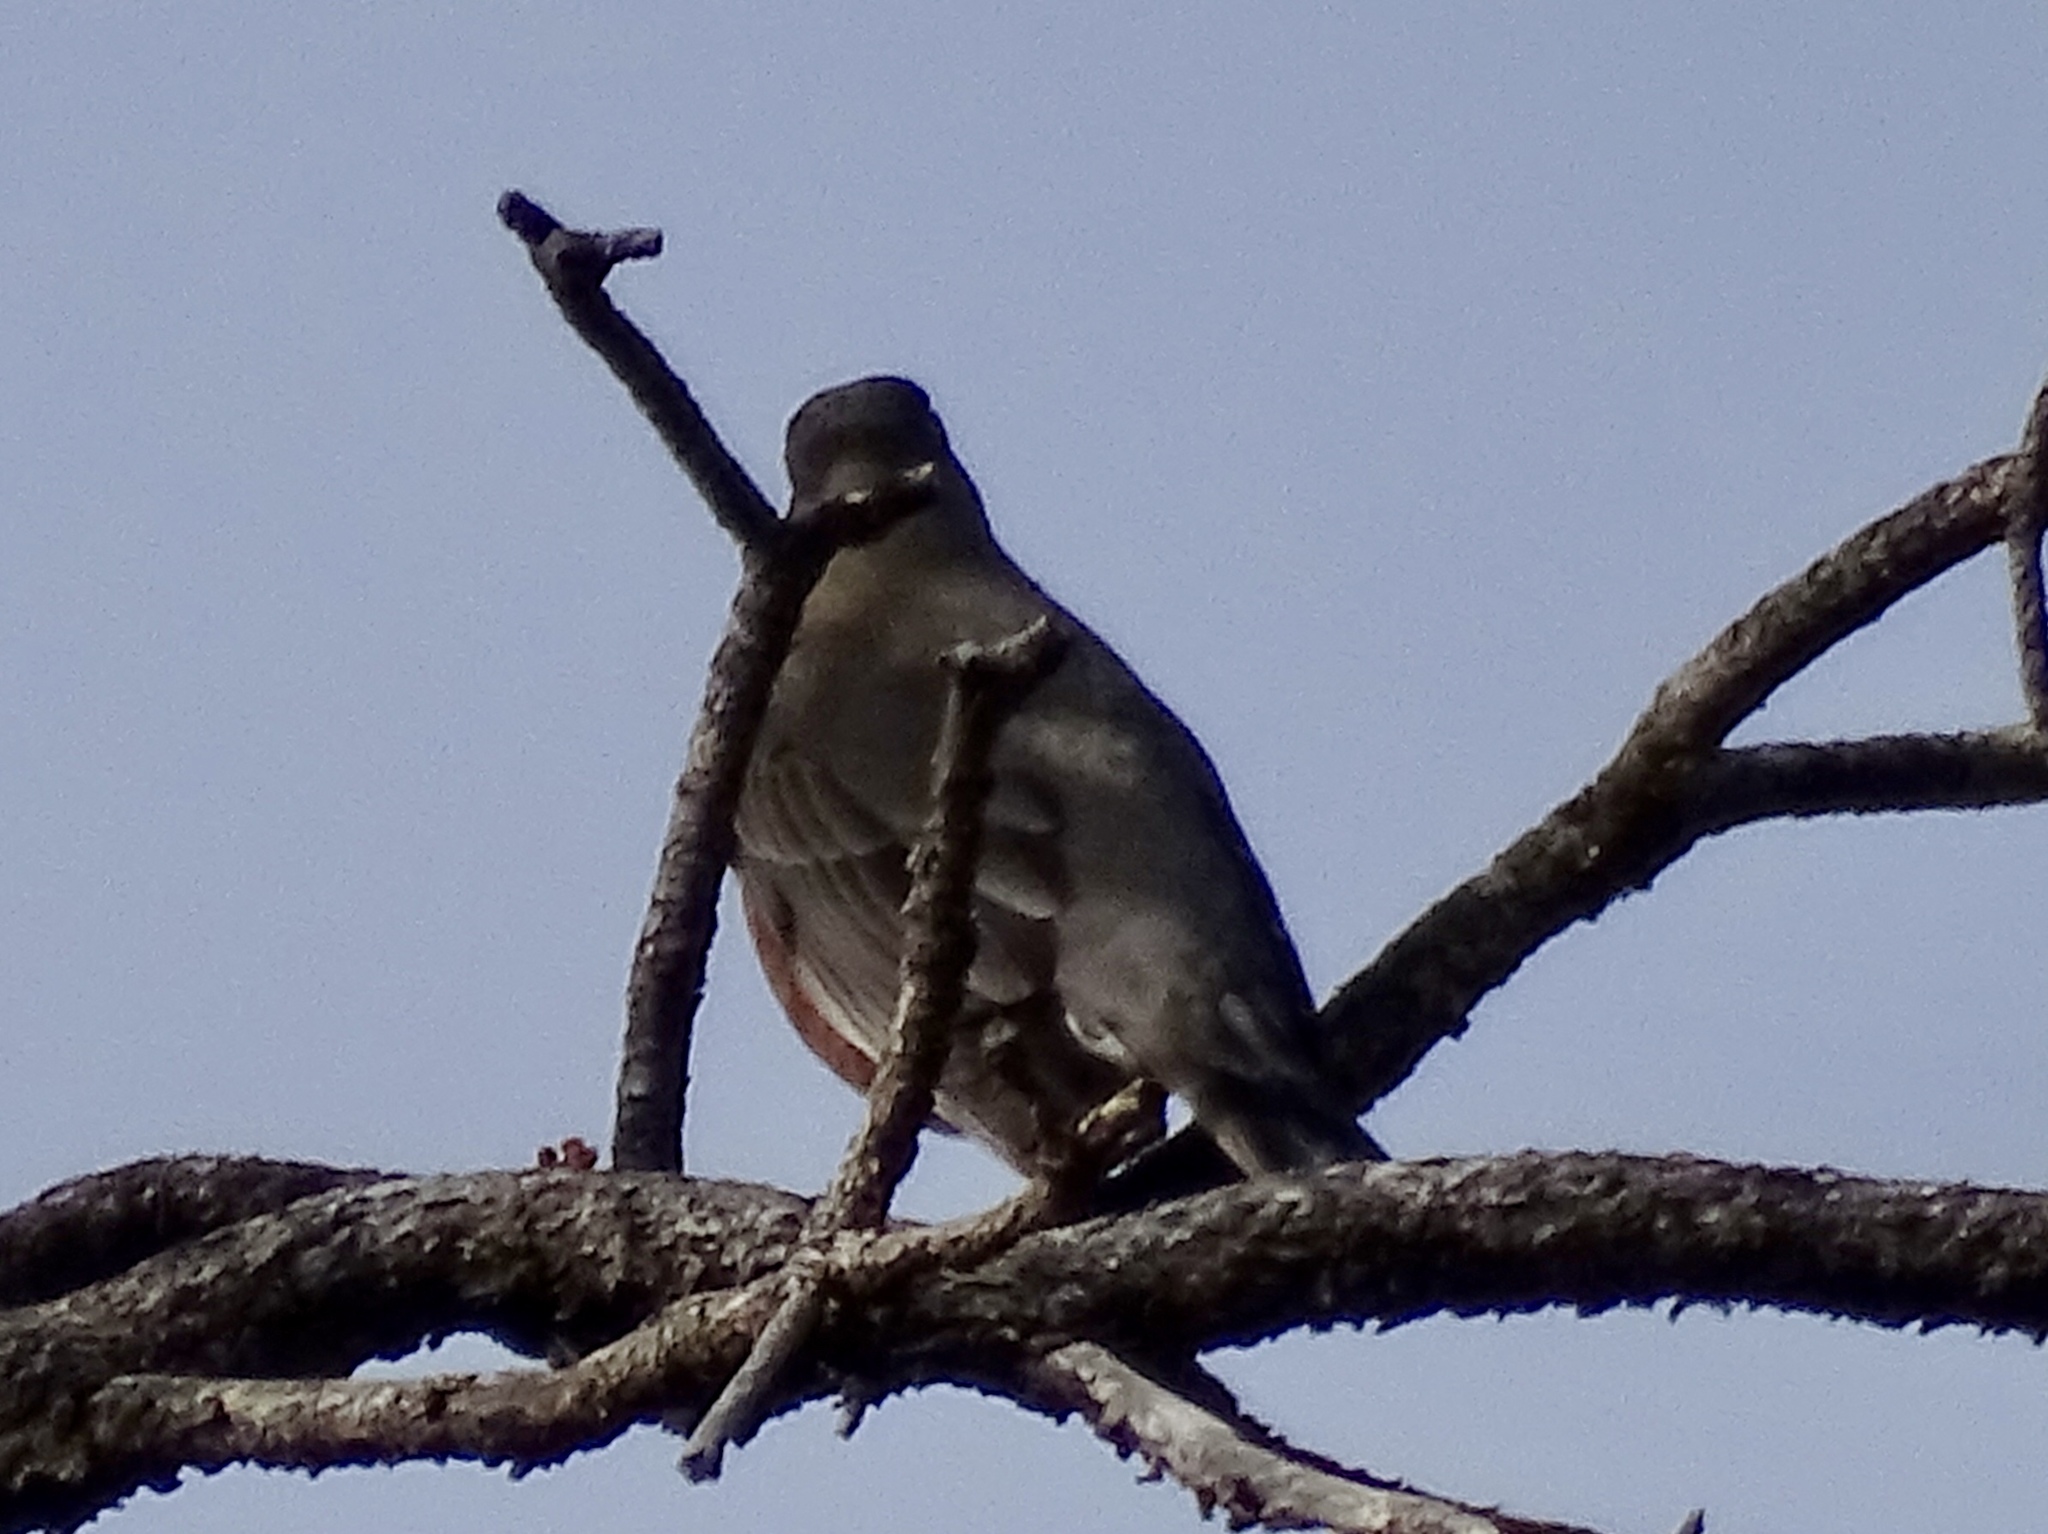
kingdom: Animalia
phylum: Chordata
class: Aves
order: Passeriformes
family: Turdidae
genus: Turdus
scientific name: Turdus migratorius
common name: American robin
